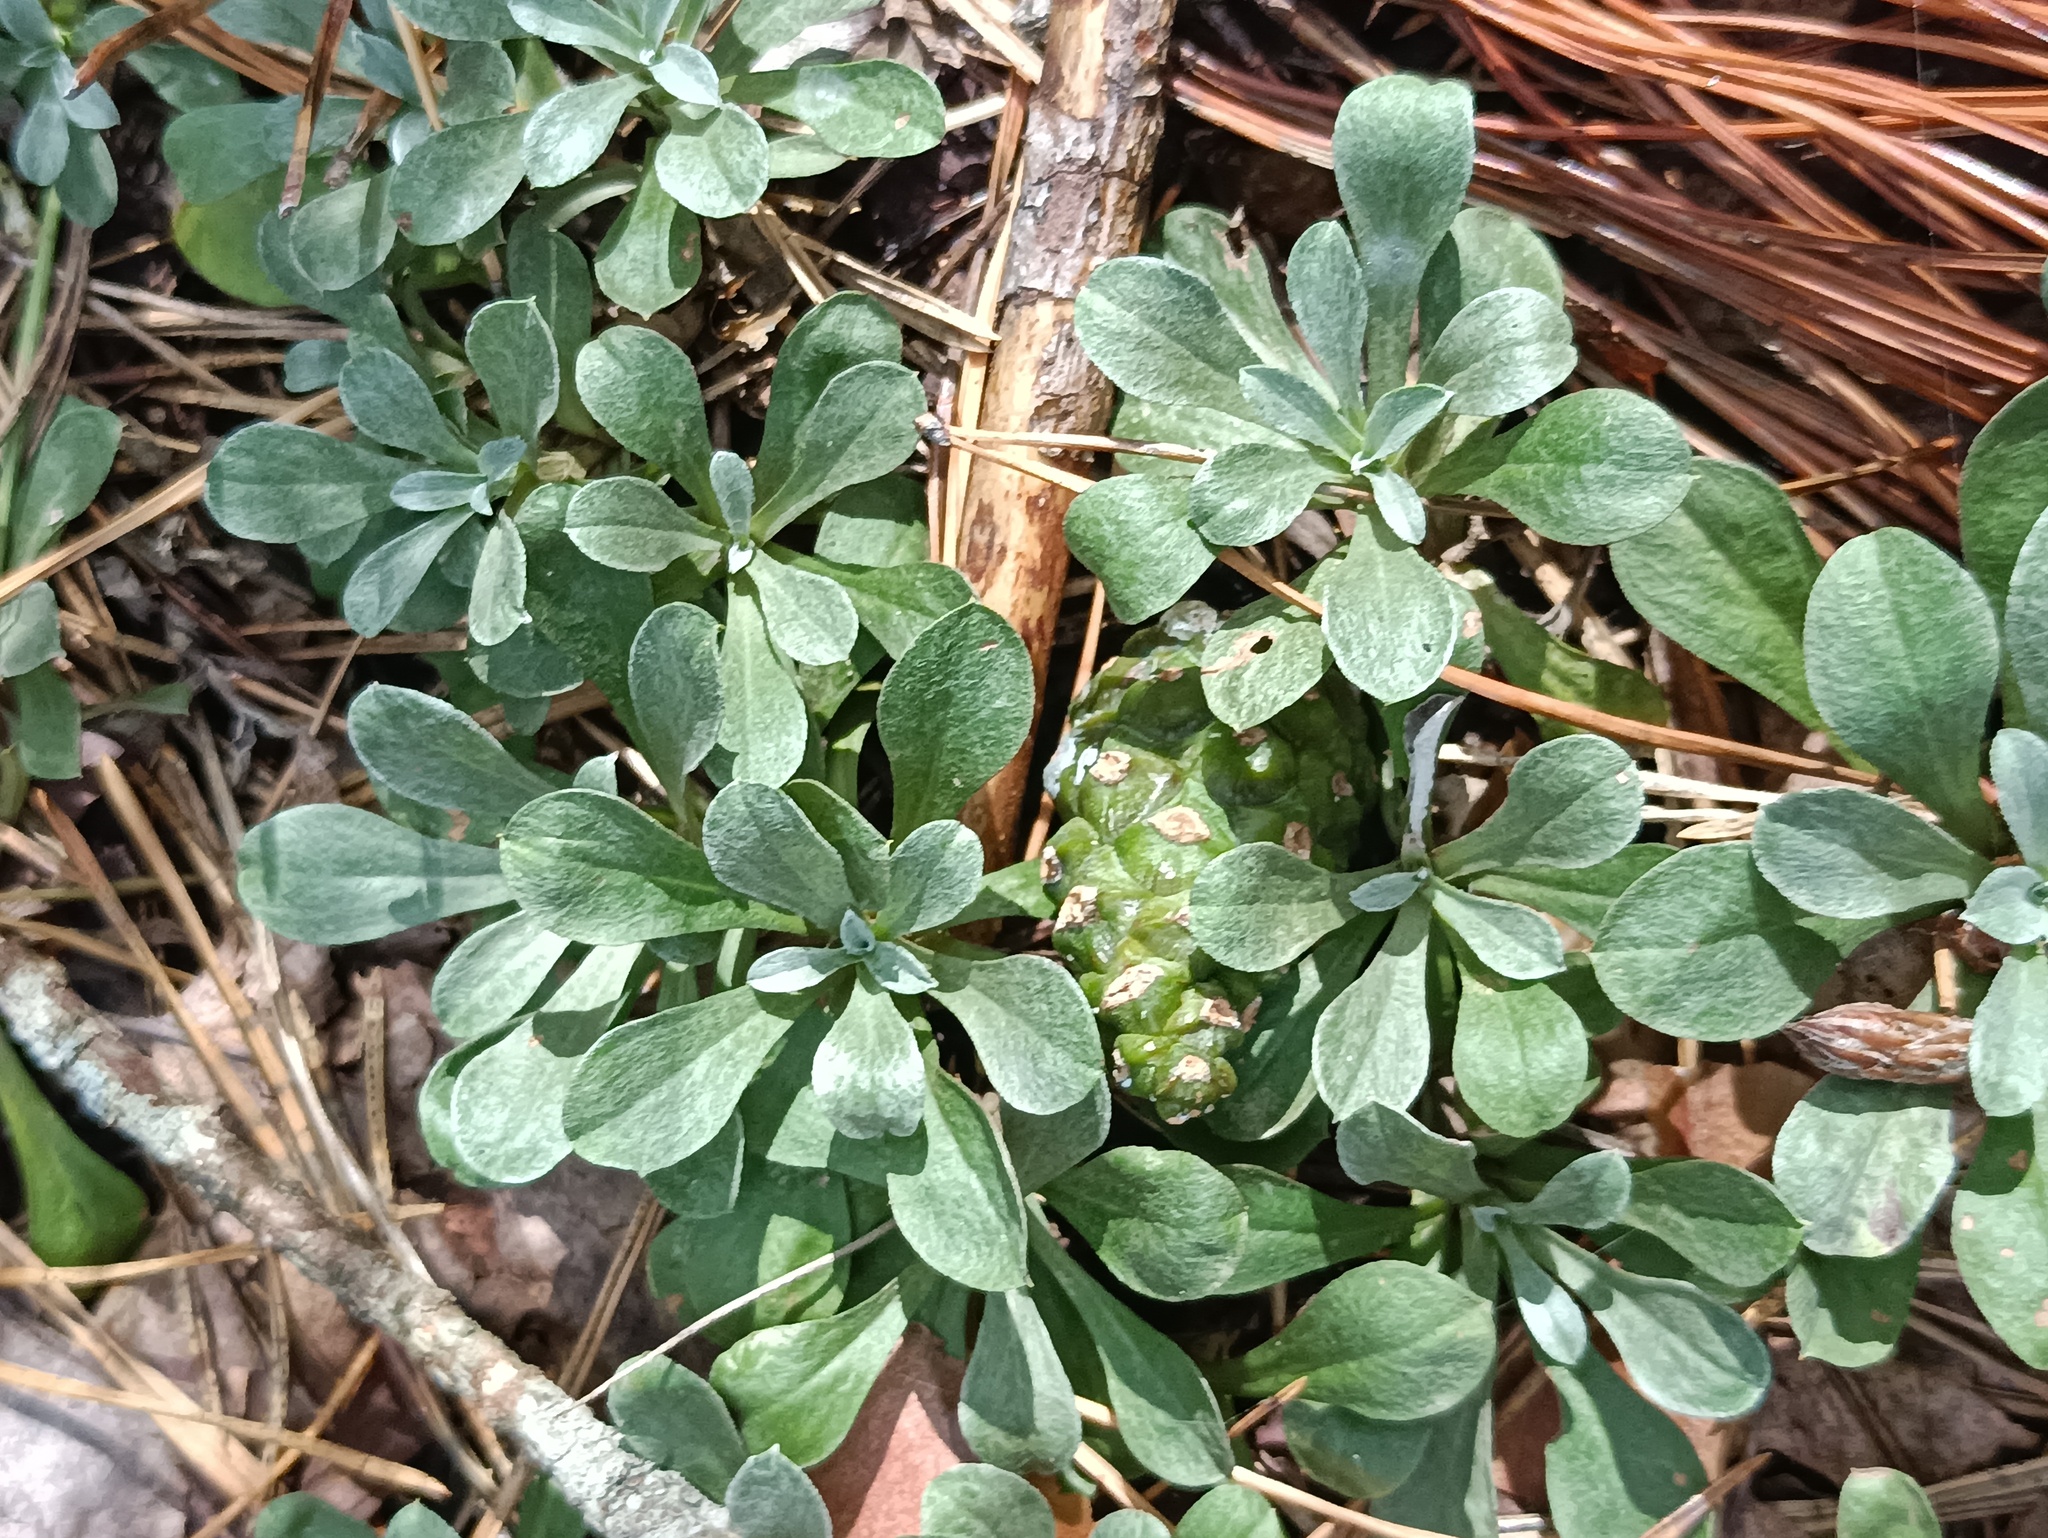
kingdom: Plantae
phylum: Tracheophyta
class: Magnoliopsida
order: Asterales
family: Asteraceae
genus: Antennaria
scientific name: Antennaria dioica
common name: Mountain everlasting
